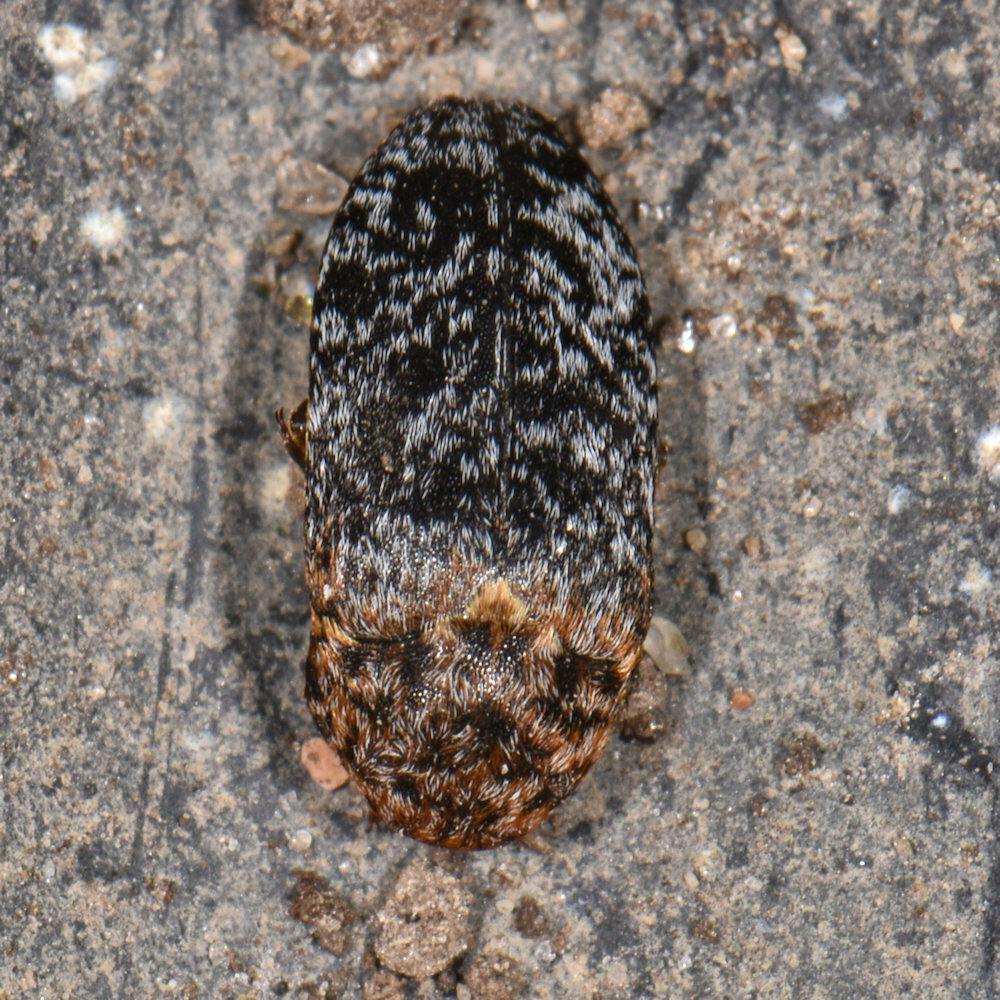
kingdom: Animalia
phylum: Arthropoda
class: Insecta
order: Coleoptera
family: Dermestidae
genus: Dermestes
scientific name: Dermestes undulatus
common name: Wavy carpet beetle
